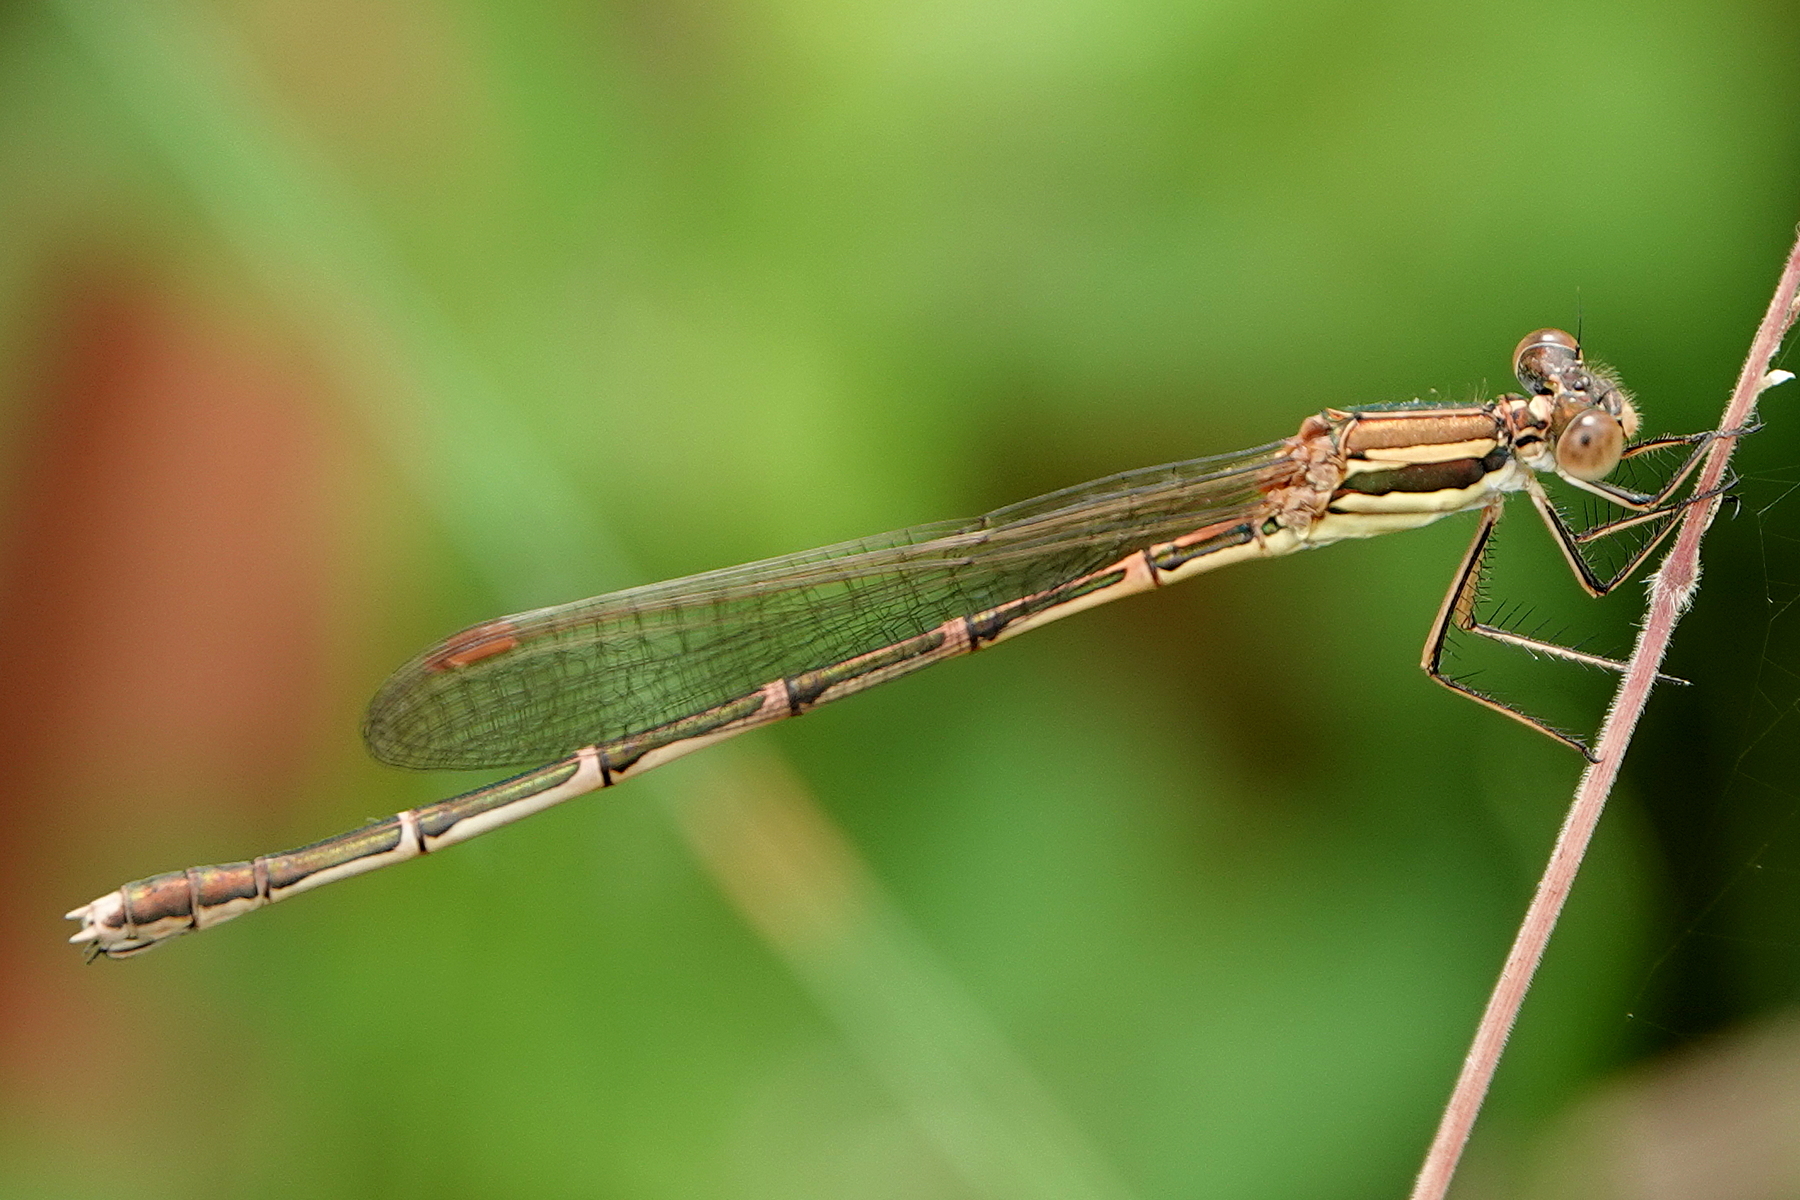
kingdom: Animalia
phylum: Arthropoda
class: Insecta
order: Odonata
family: Lestidae
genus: Austrolestes
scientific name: Austrolestes analis
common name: Slender ringtail
